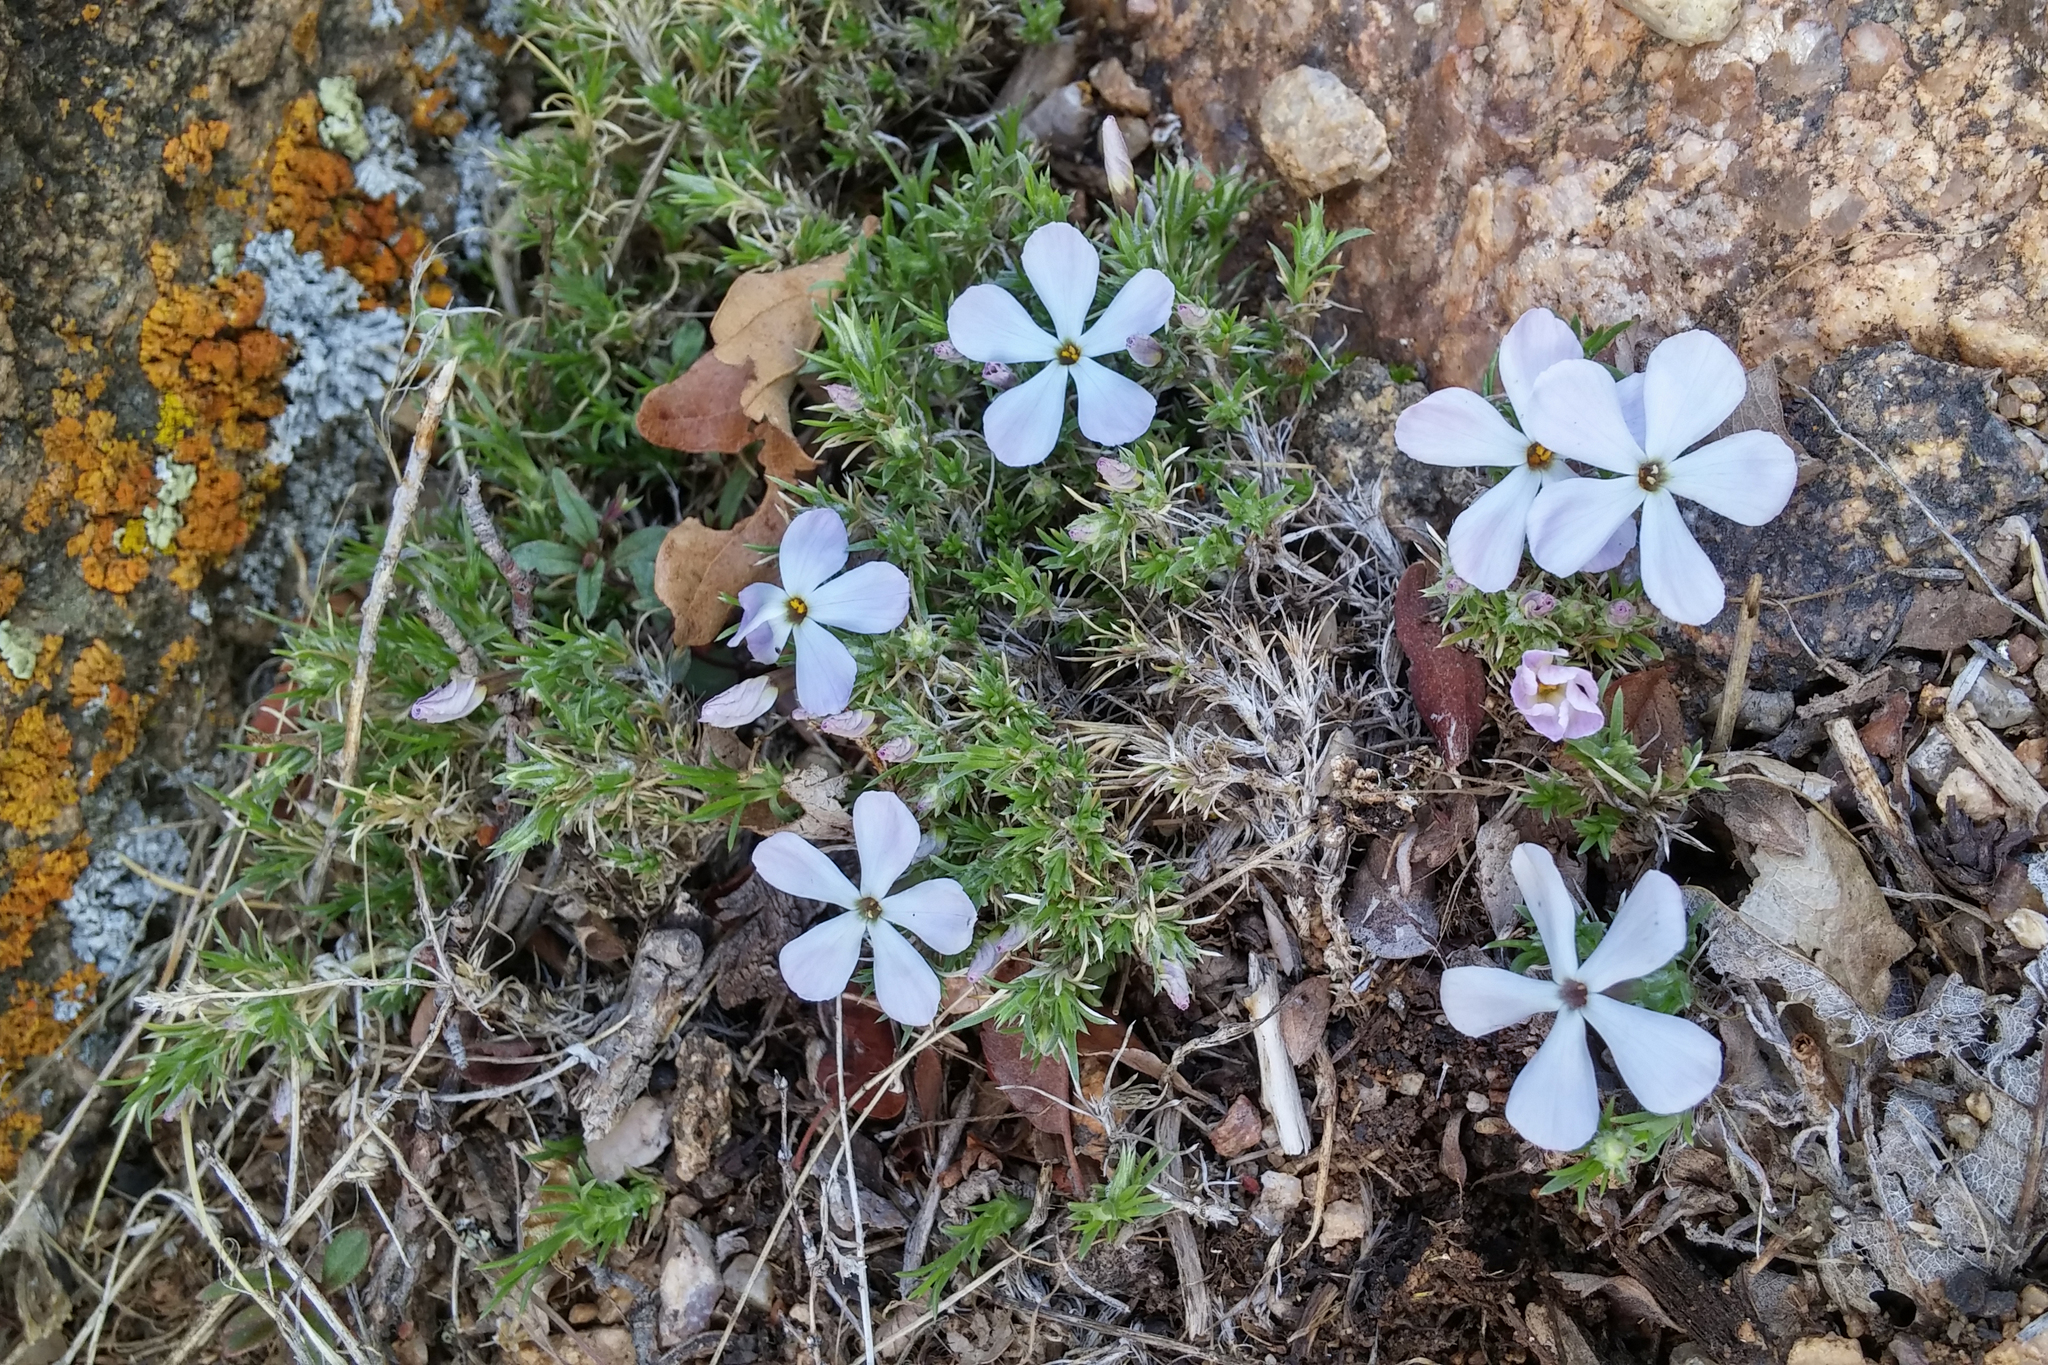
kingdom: Plantae
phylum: Tracheophyta
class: Magnoliopsida
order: Ericales
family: Polemoniaceae
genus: Phlox
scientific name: Phlox hoodii
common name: Moss phlox
